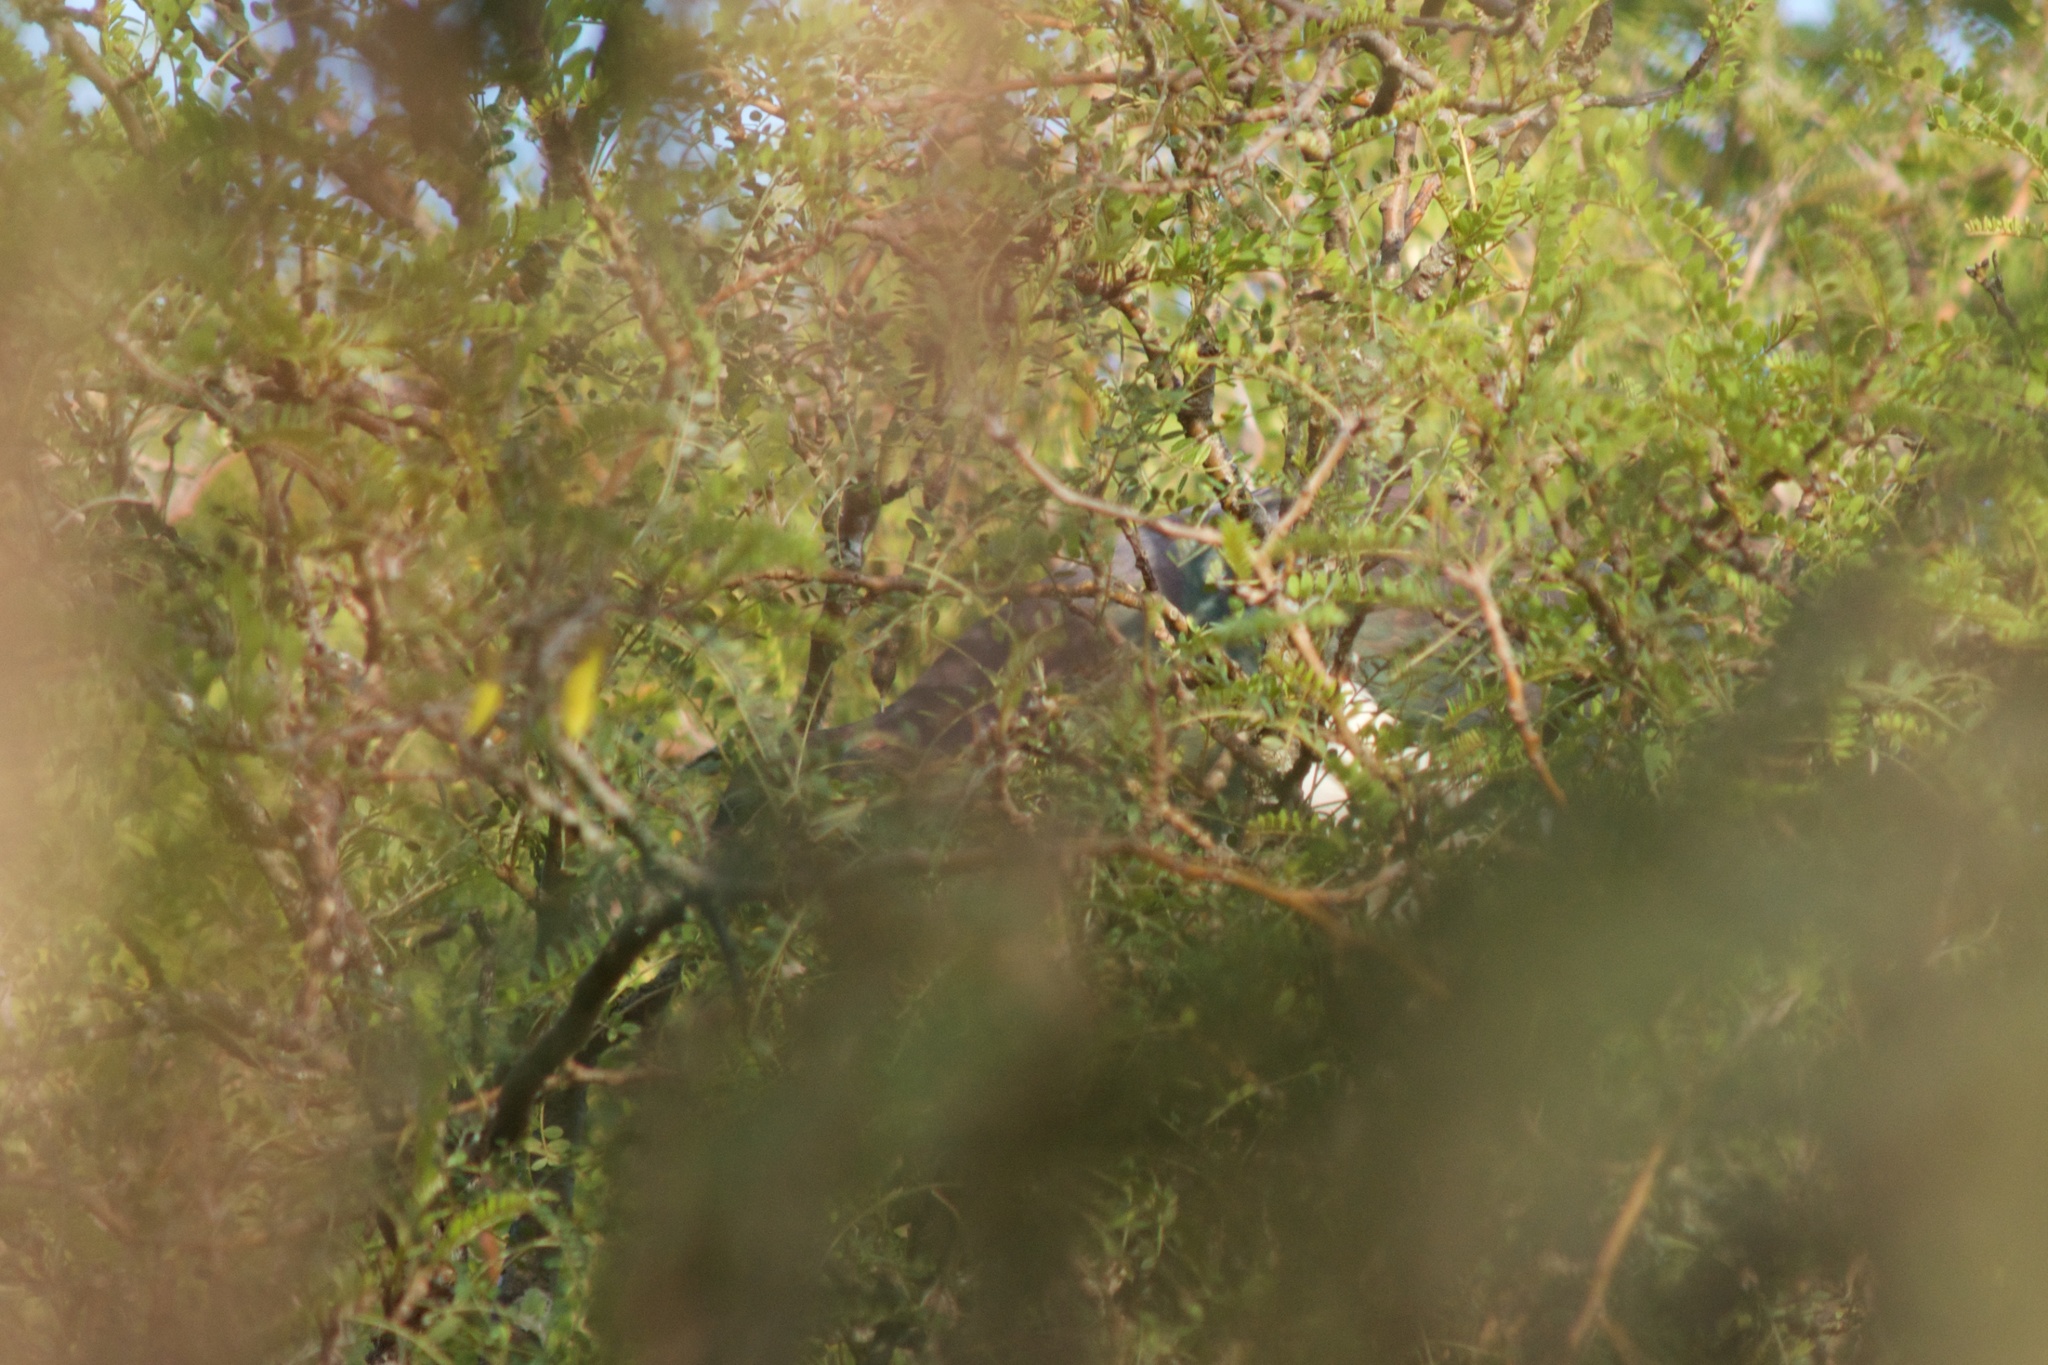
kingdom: Animalia
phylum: Chordata
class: Aves
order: Columbiformes
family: Columbidae
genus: Hemiphaga
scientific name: Hemiphaga novaeseelandiae
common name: New zealand pigeon
